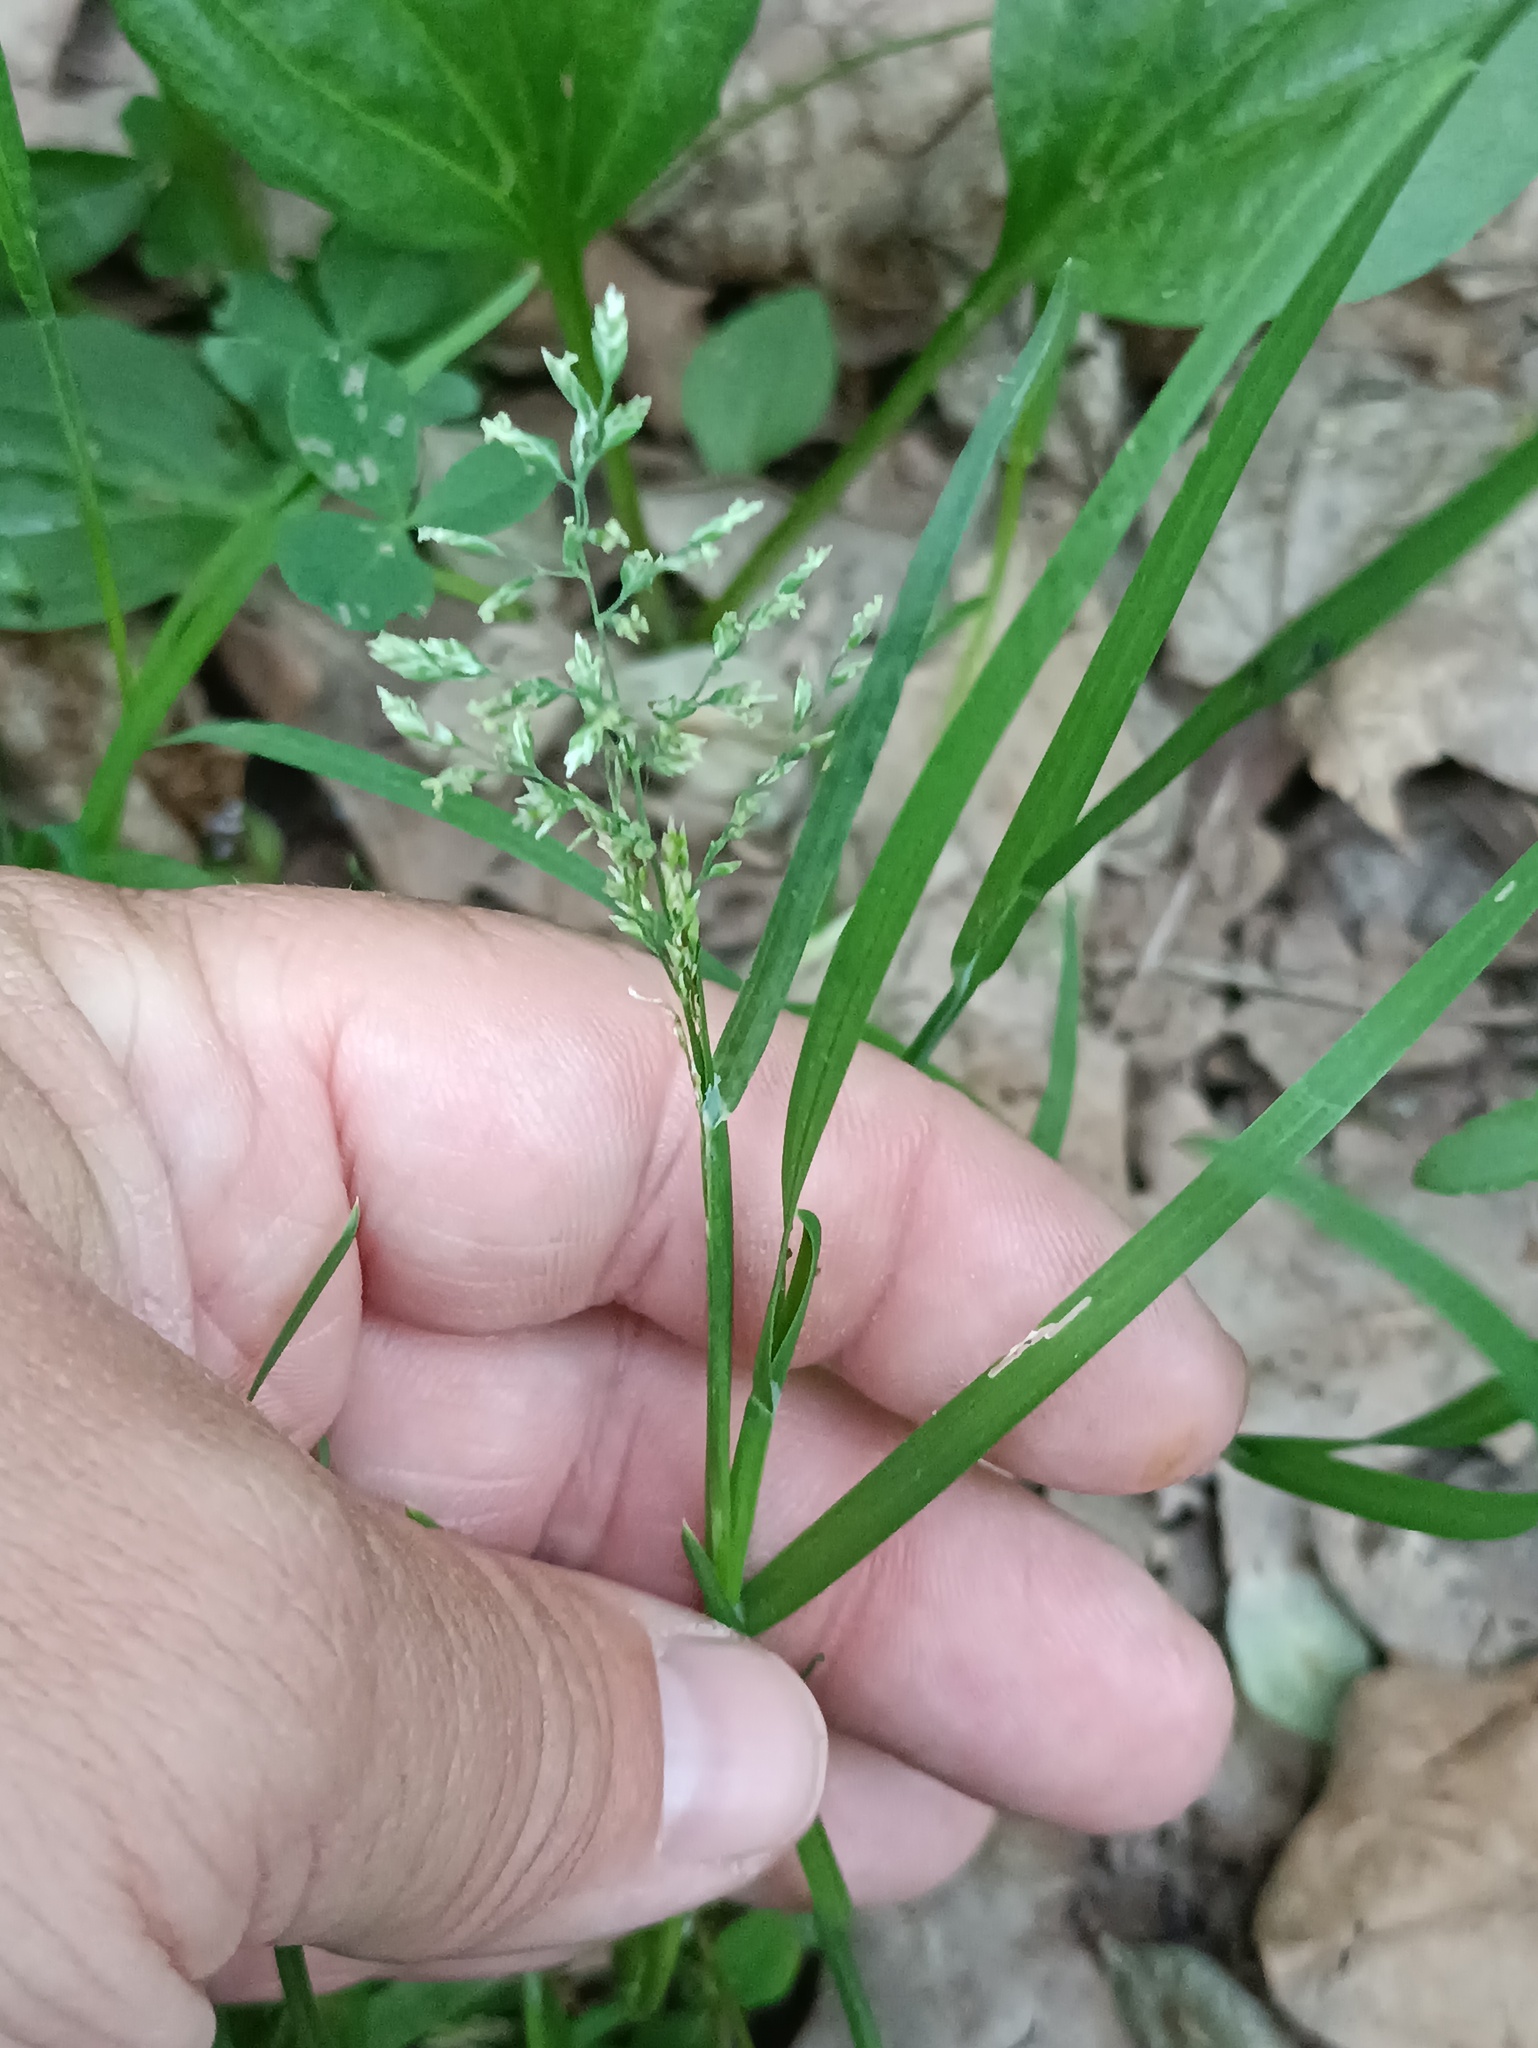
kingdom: Plantae
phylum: Tracheophyta
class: Liliopsida
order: Poales
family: Poaceae
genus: Poa
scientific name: Poa annua
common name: Annual bluegrass
